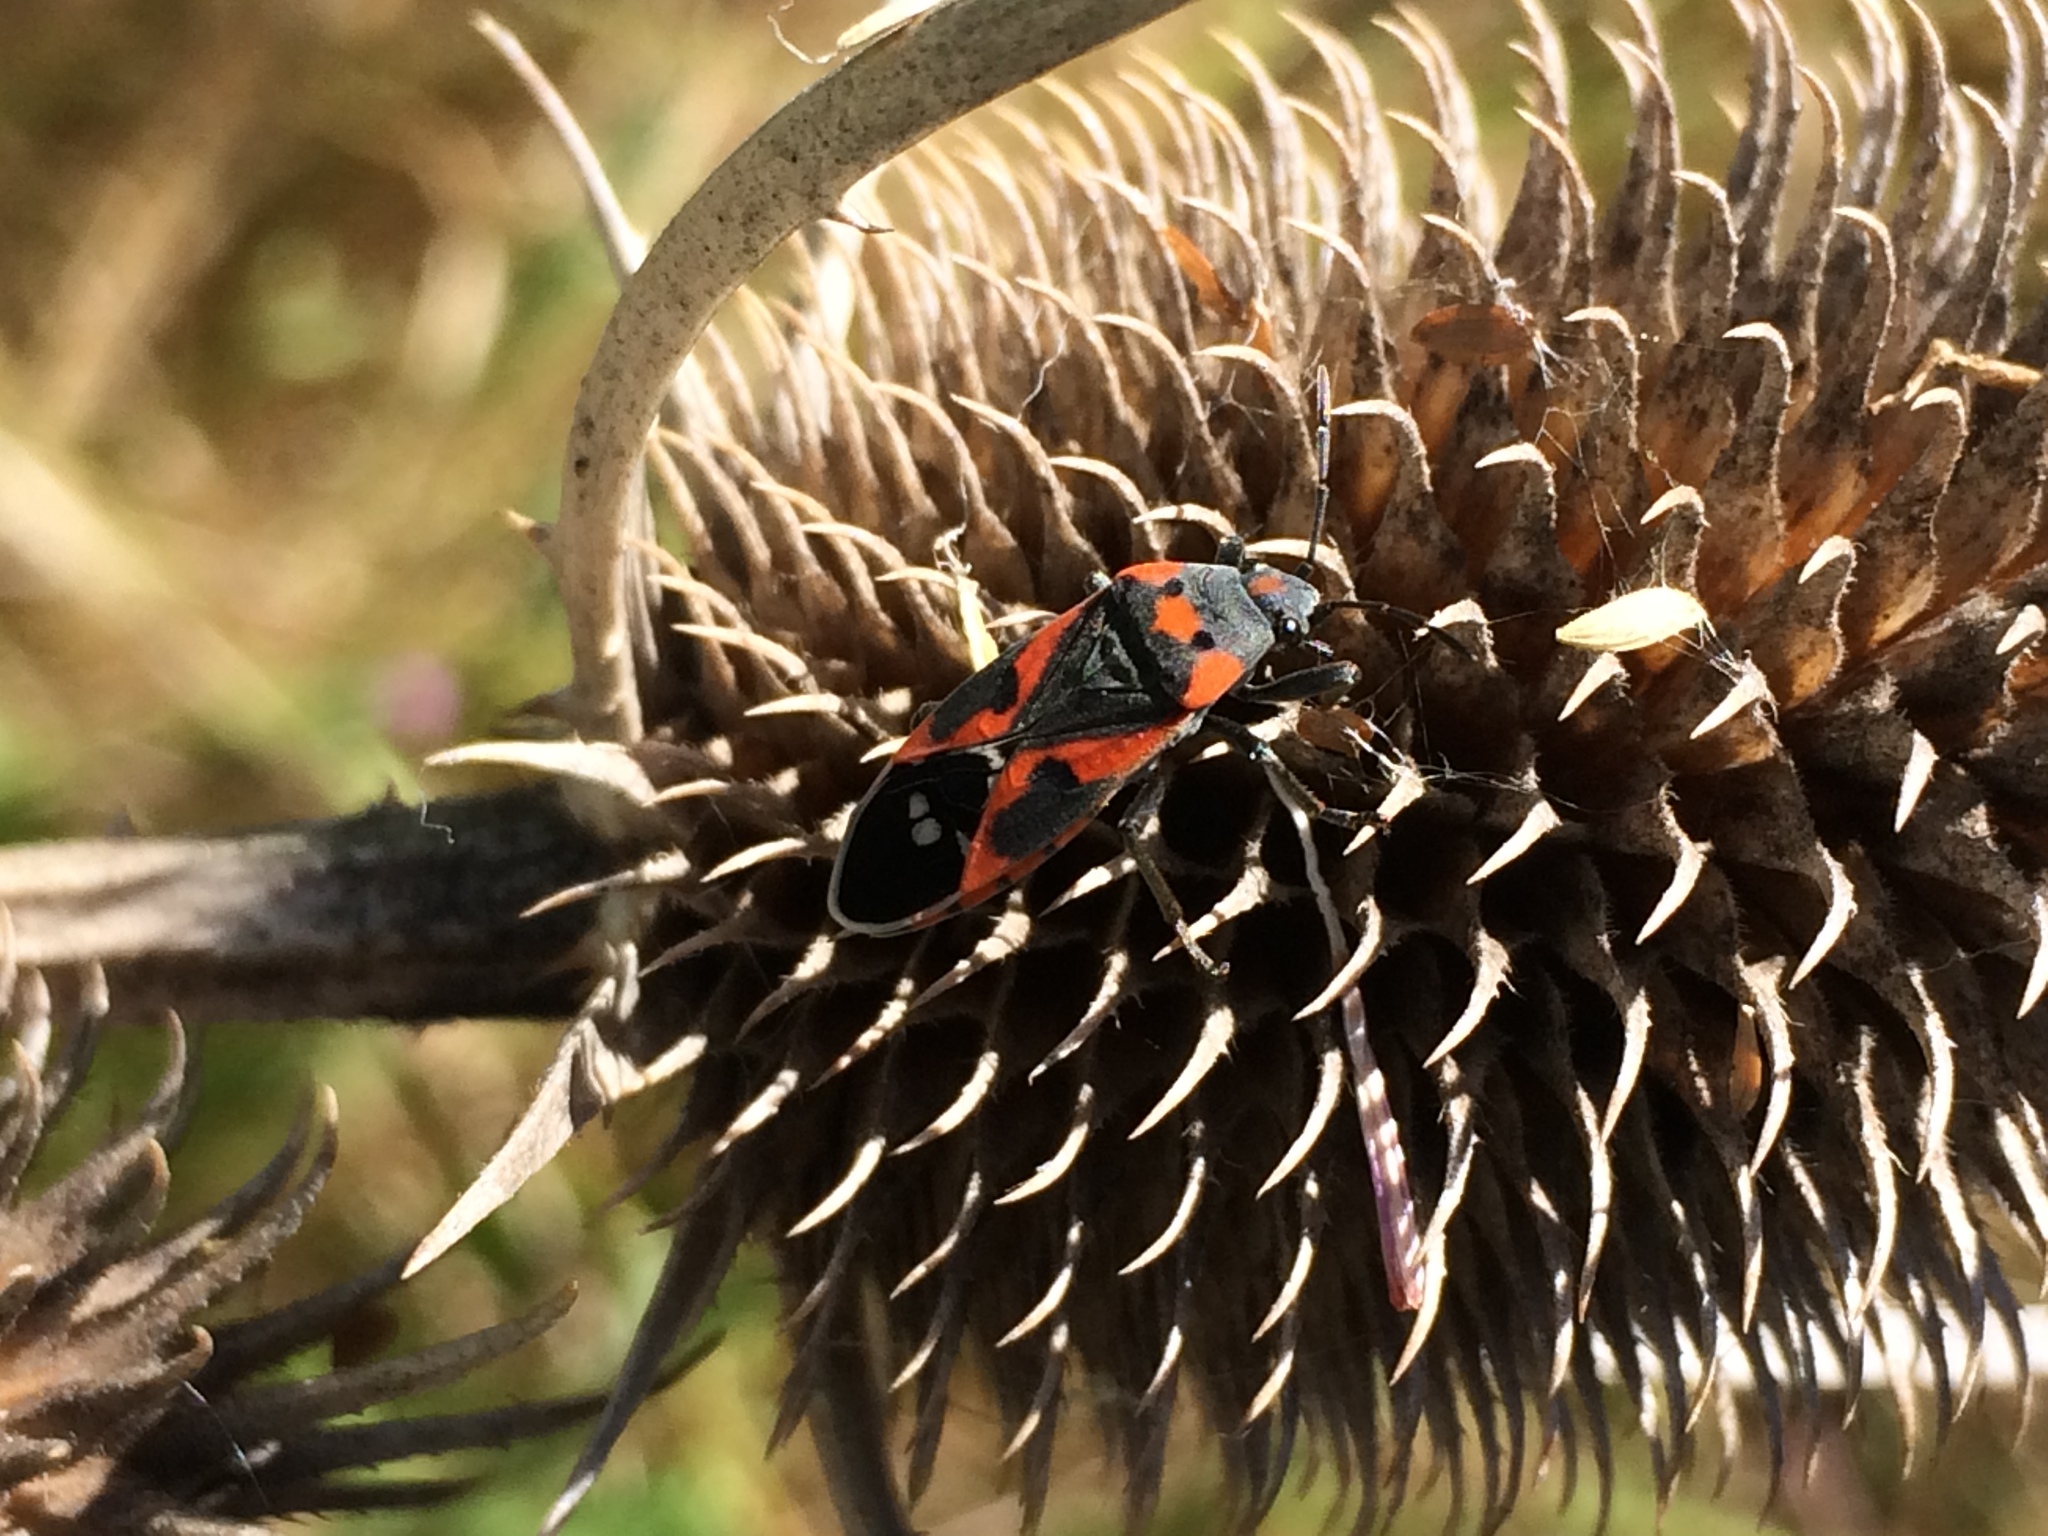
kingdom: Animalia
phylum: Arthropoda
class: Insecta
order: Hemiptera
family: Lygaeidae
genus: Lygaeus
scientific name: Lygaeus kalmii
